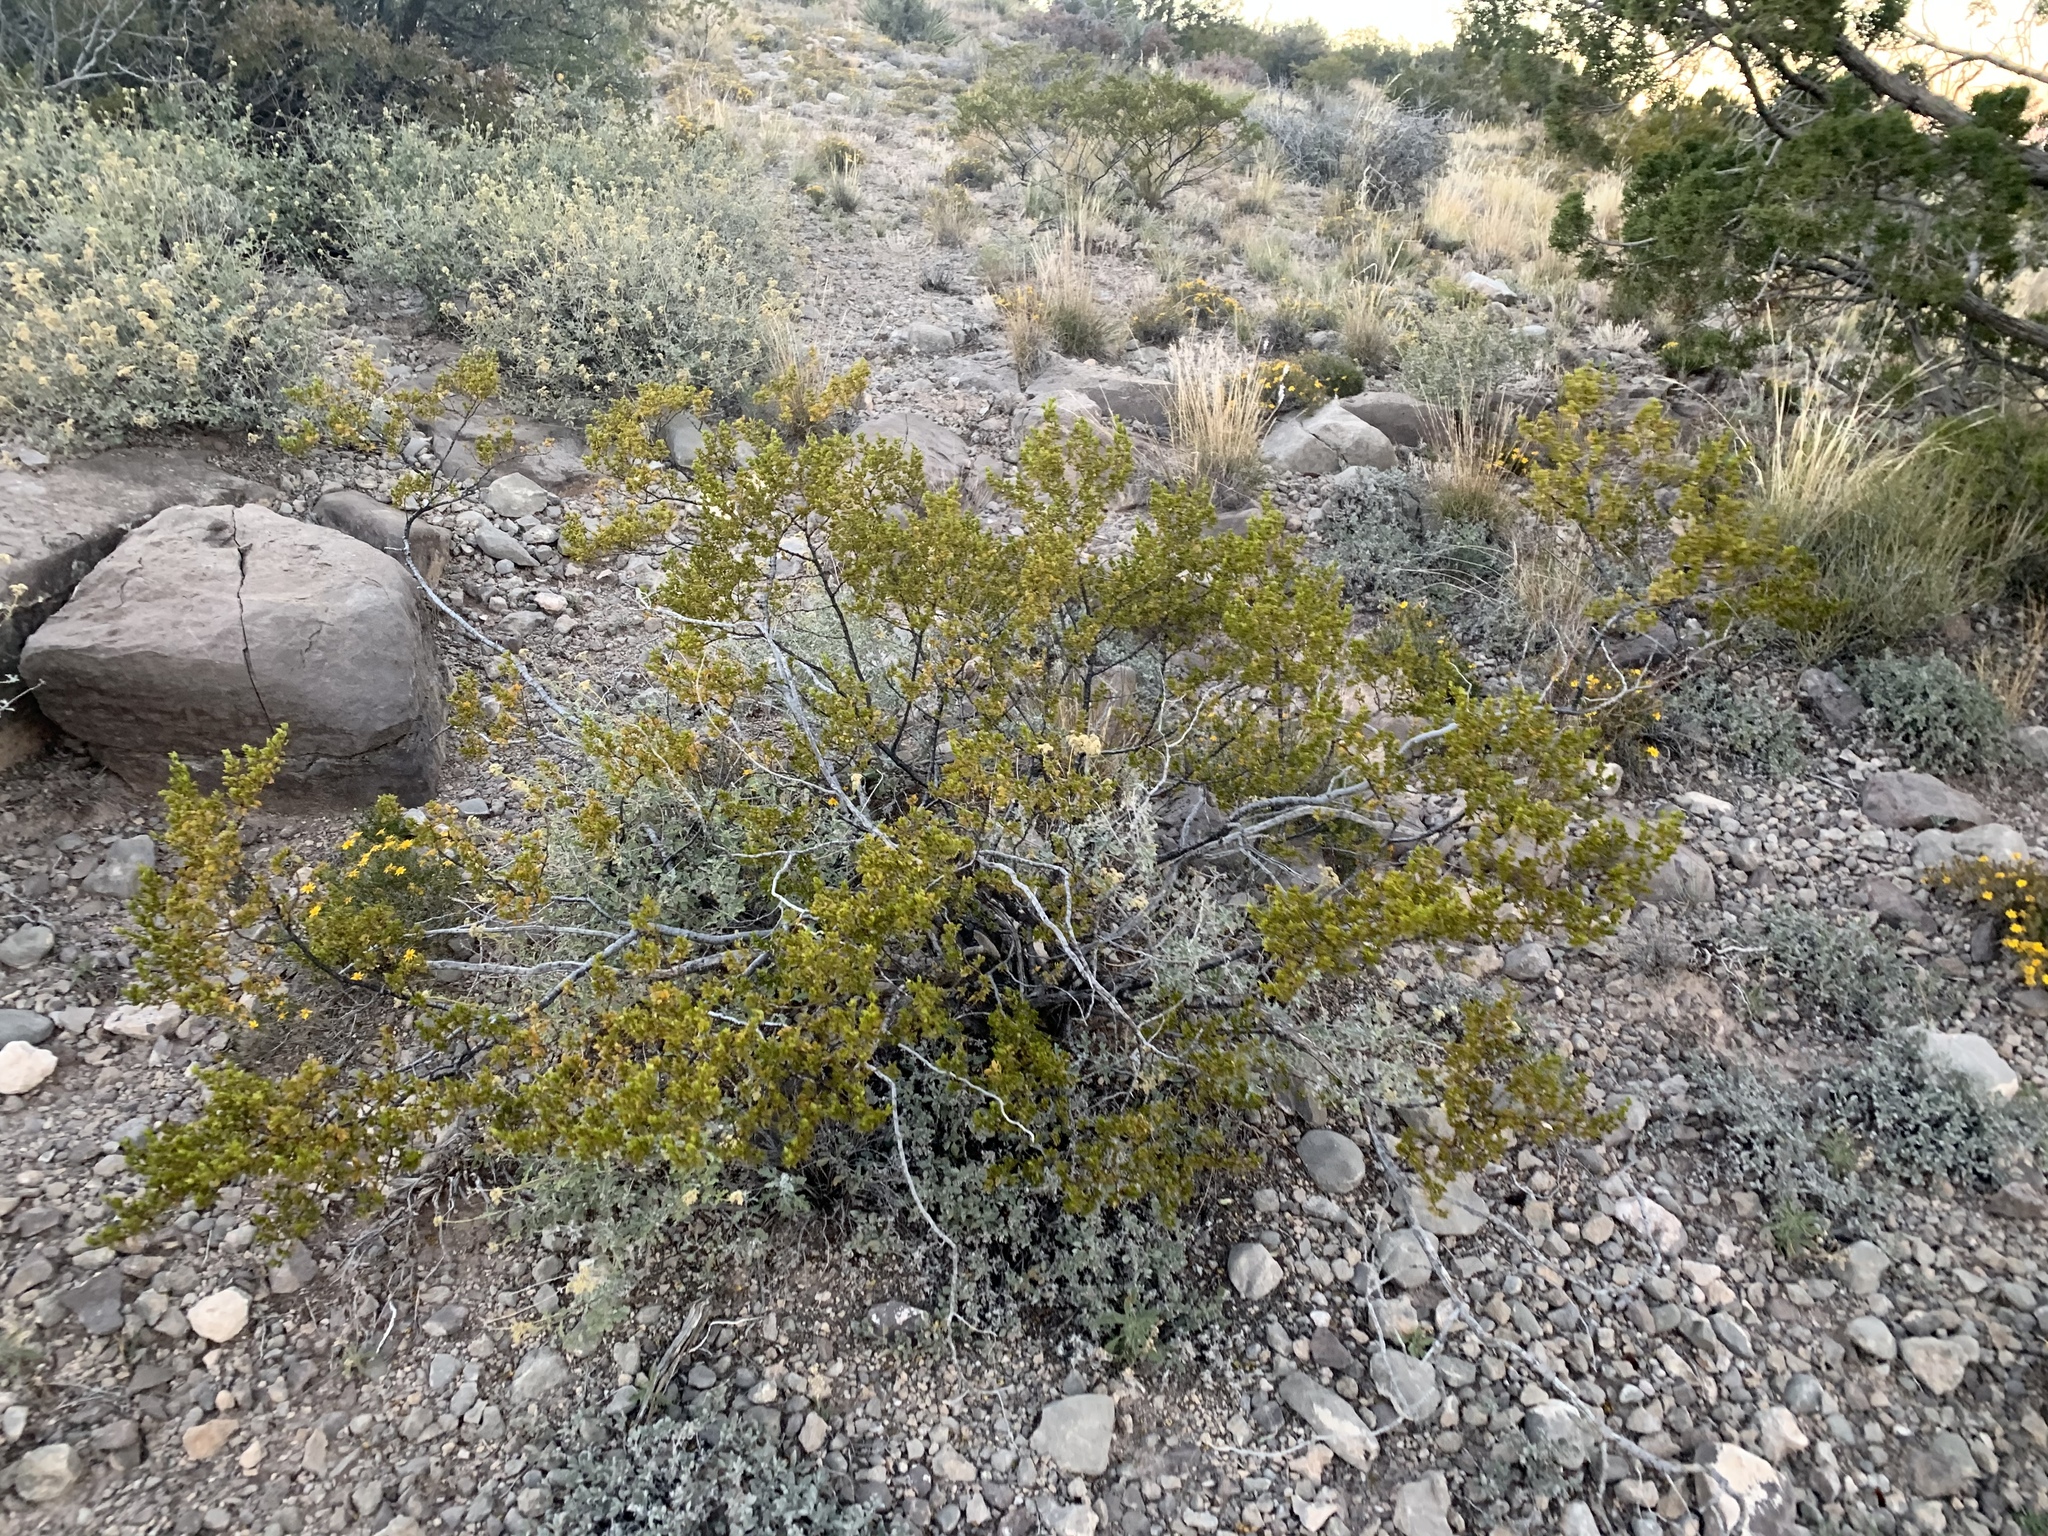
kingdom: Plantae
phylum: Tracheophyta
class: Magnoliopsida
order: Zygophyllales
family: Zygophyllaceae
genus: Larrea
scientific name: Larrea tridentata
